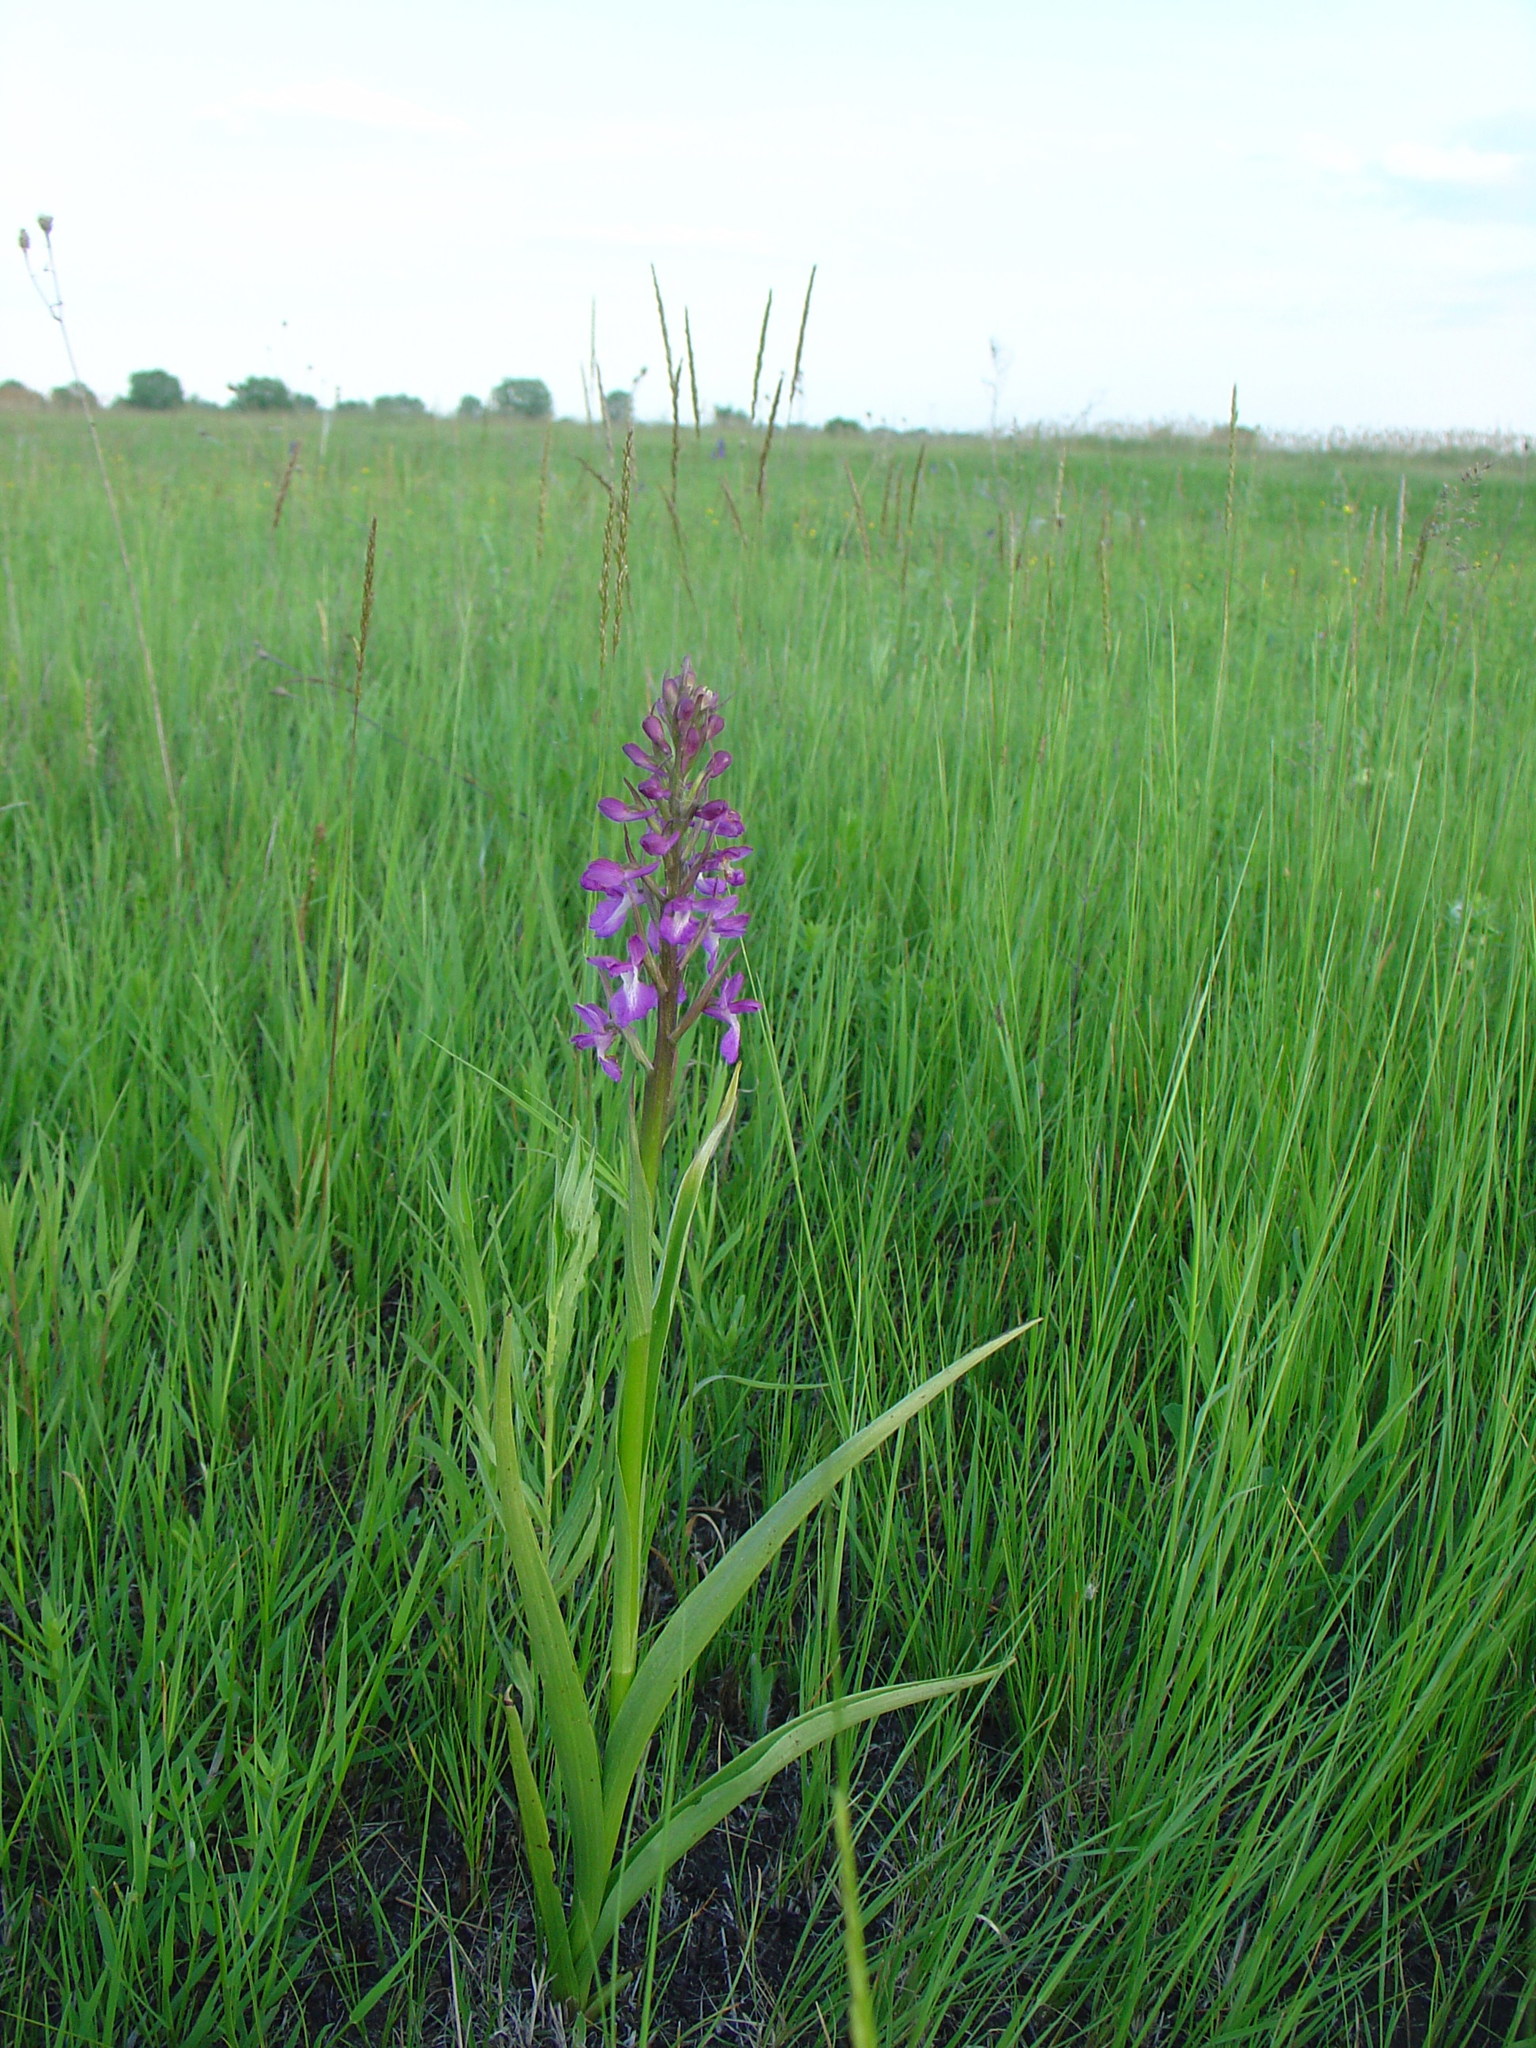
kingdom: Plantae
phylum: Tracheophyta
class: Liliopsida
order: Asparagales
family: Orchidaceae
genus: Anacamptis
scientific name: Anacamptis laxiflora
